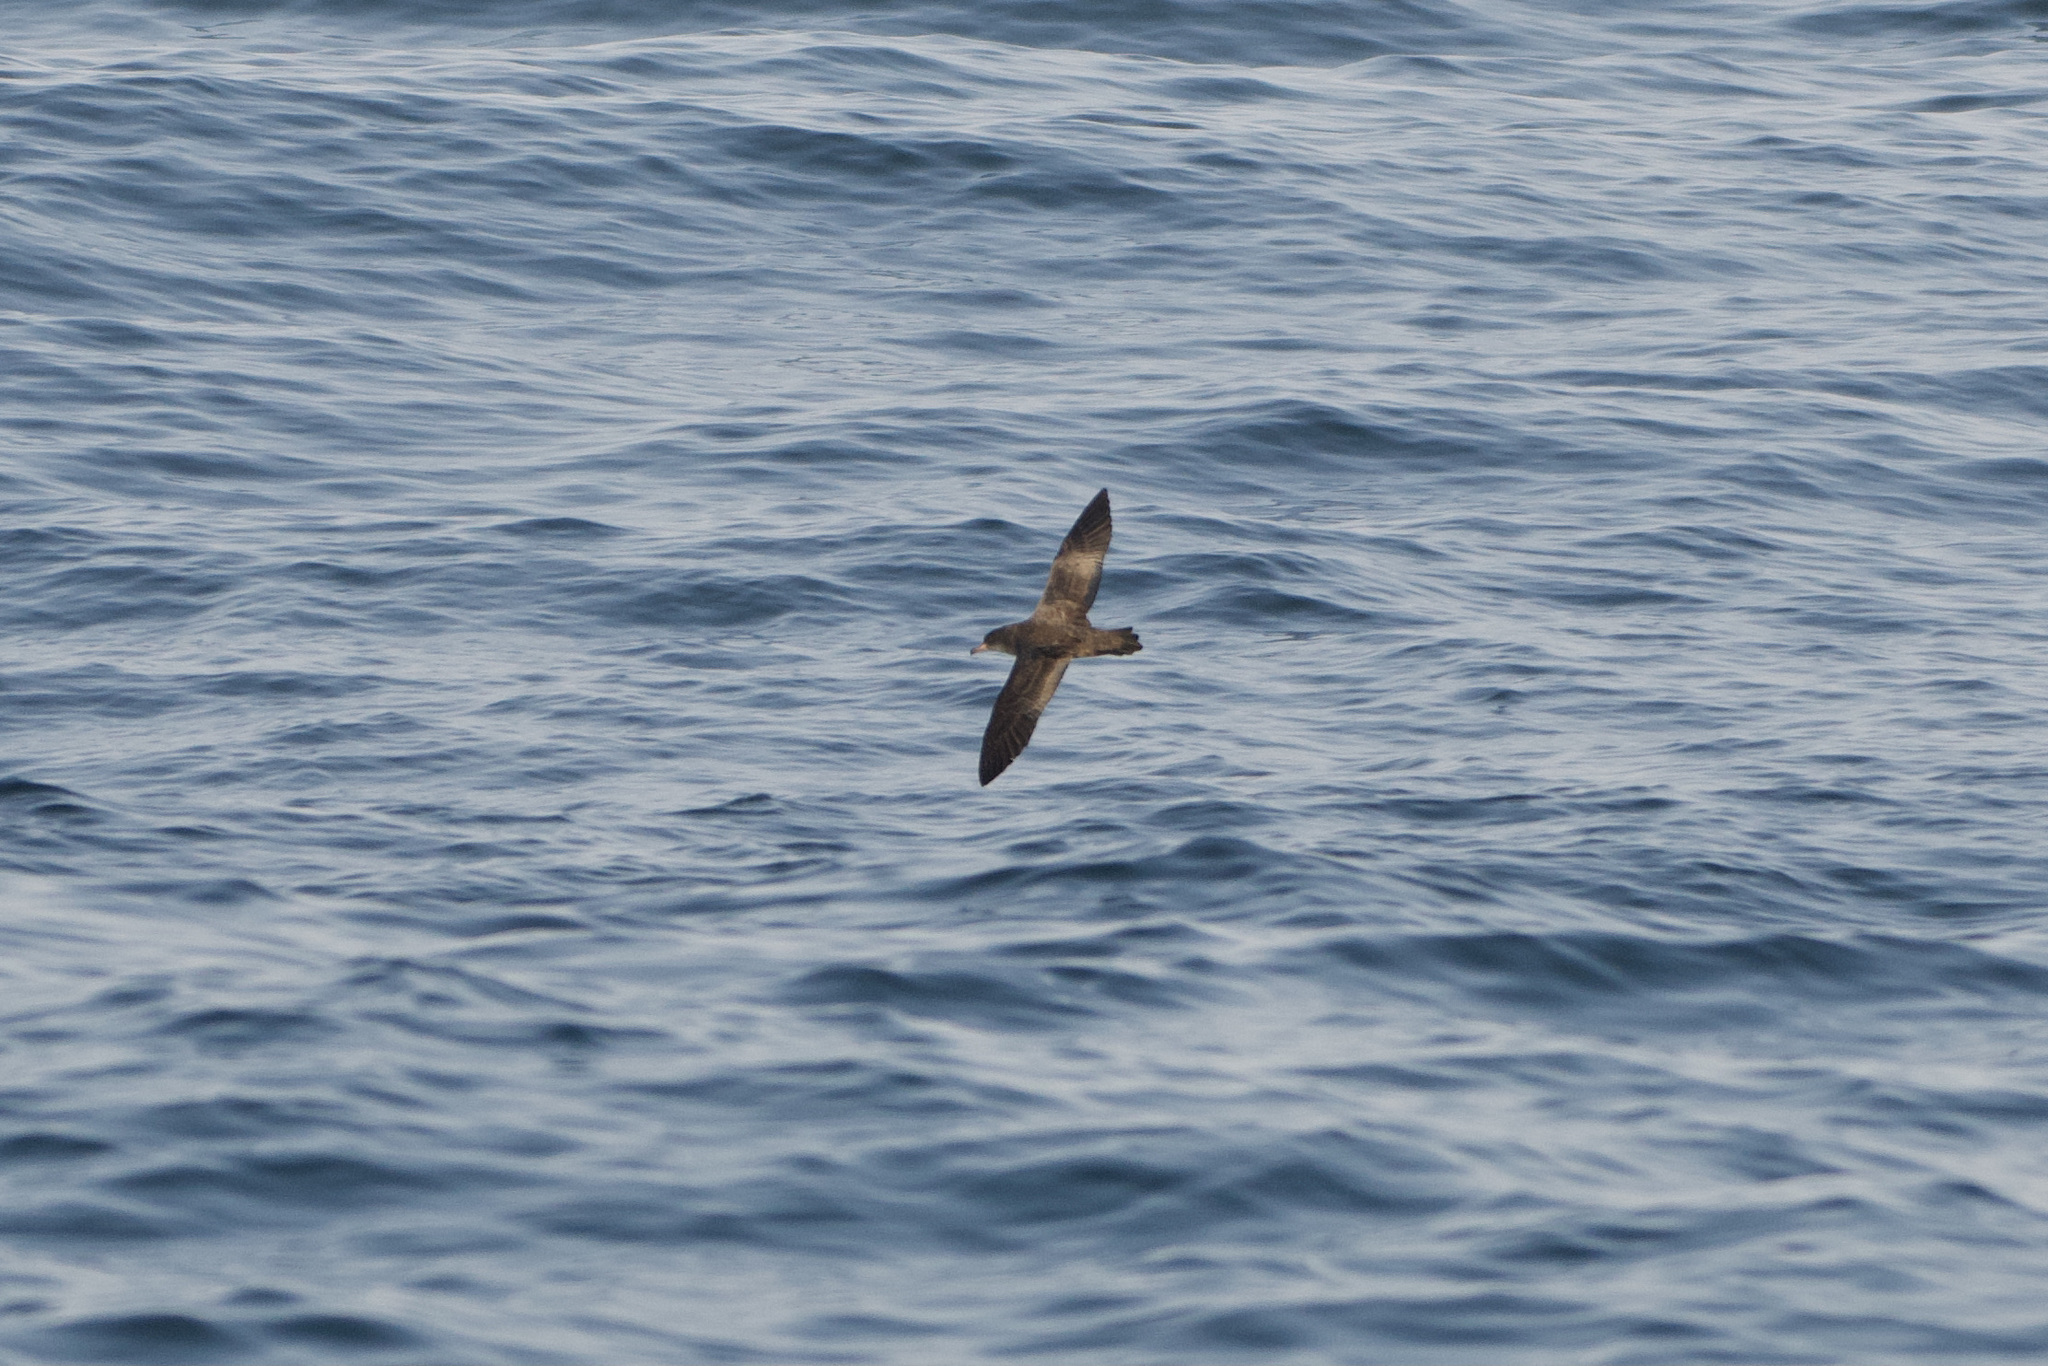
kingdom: Animalia
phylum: Chordata
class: Aves
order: Procellariiformes
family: Procellariidae
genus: Puffinus
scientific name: Puffinus creatopus
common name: Pink-footed shearwater
